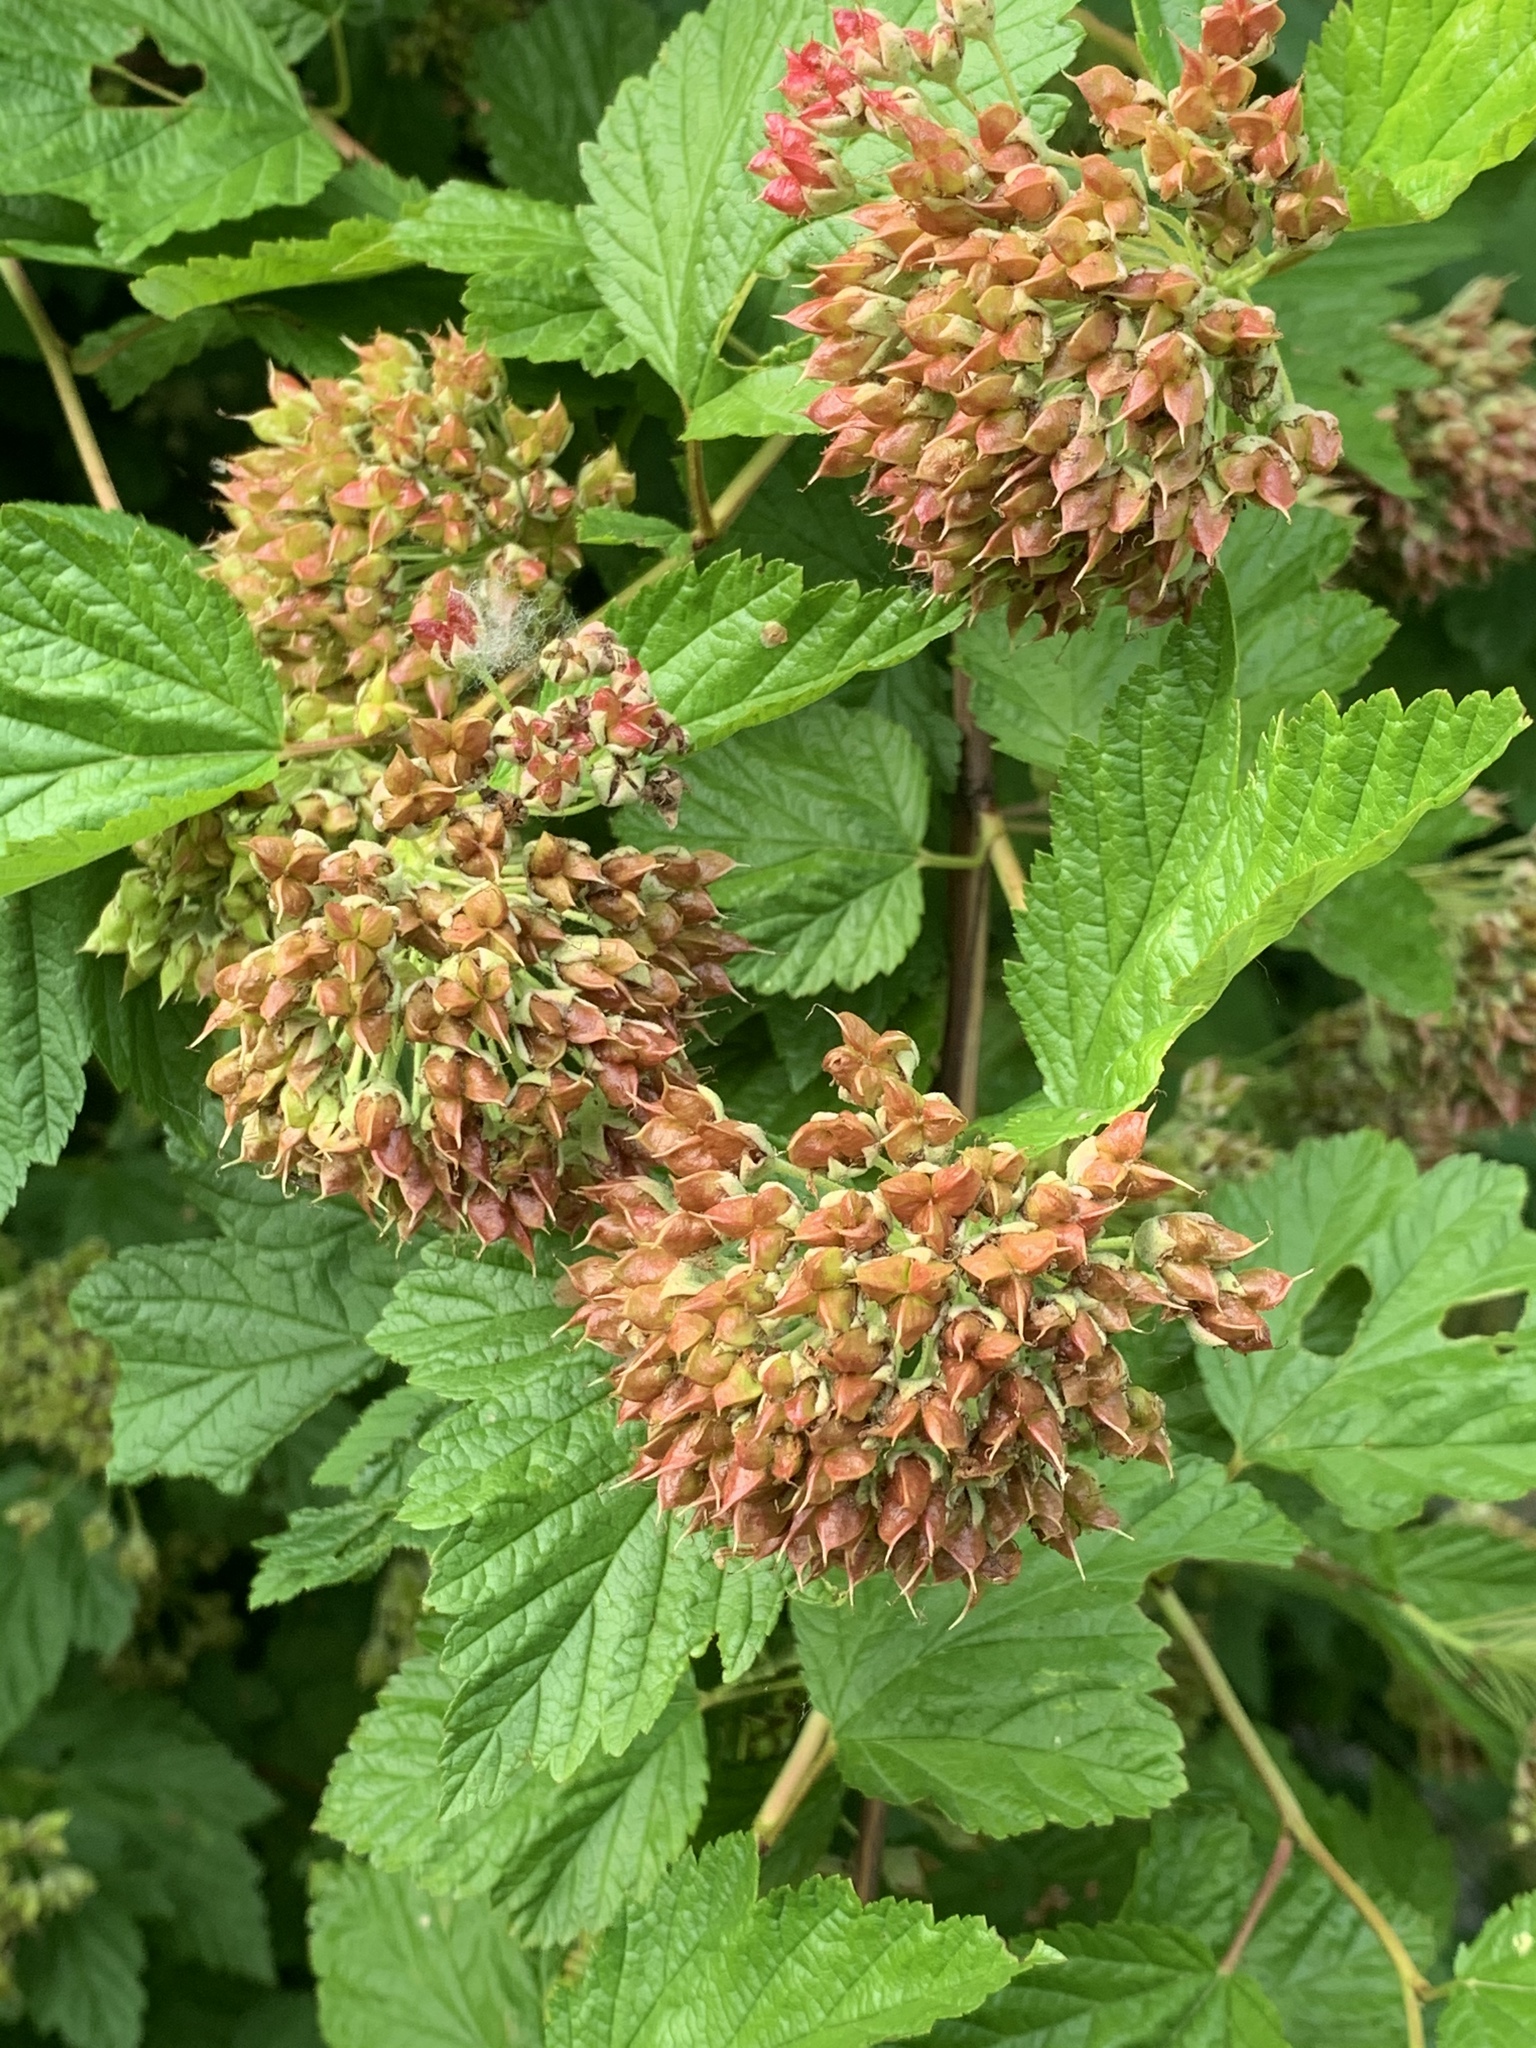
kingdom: Plantae
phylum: Tracheophyta
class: Magnoliopsida
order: Rosales
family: Rosaceae
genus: Physocarpus
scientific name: Physocarpus capitatus
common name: Pacific ninebark
